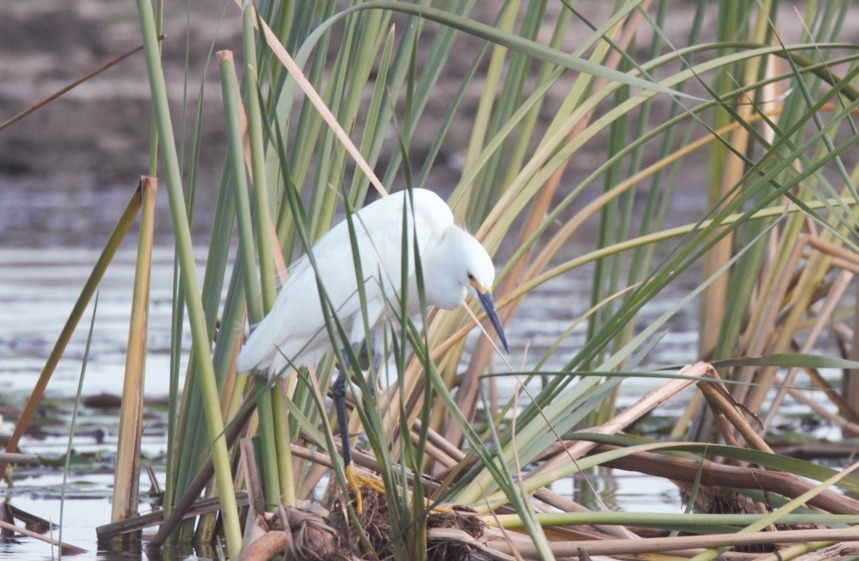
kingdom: Animalia
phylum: Chordata
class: Aves
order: Pelecaniformes
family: Ardeidae
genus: Egretta
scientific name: Egretta thula
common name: Snowy egret
